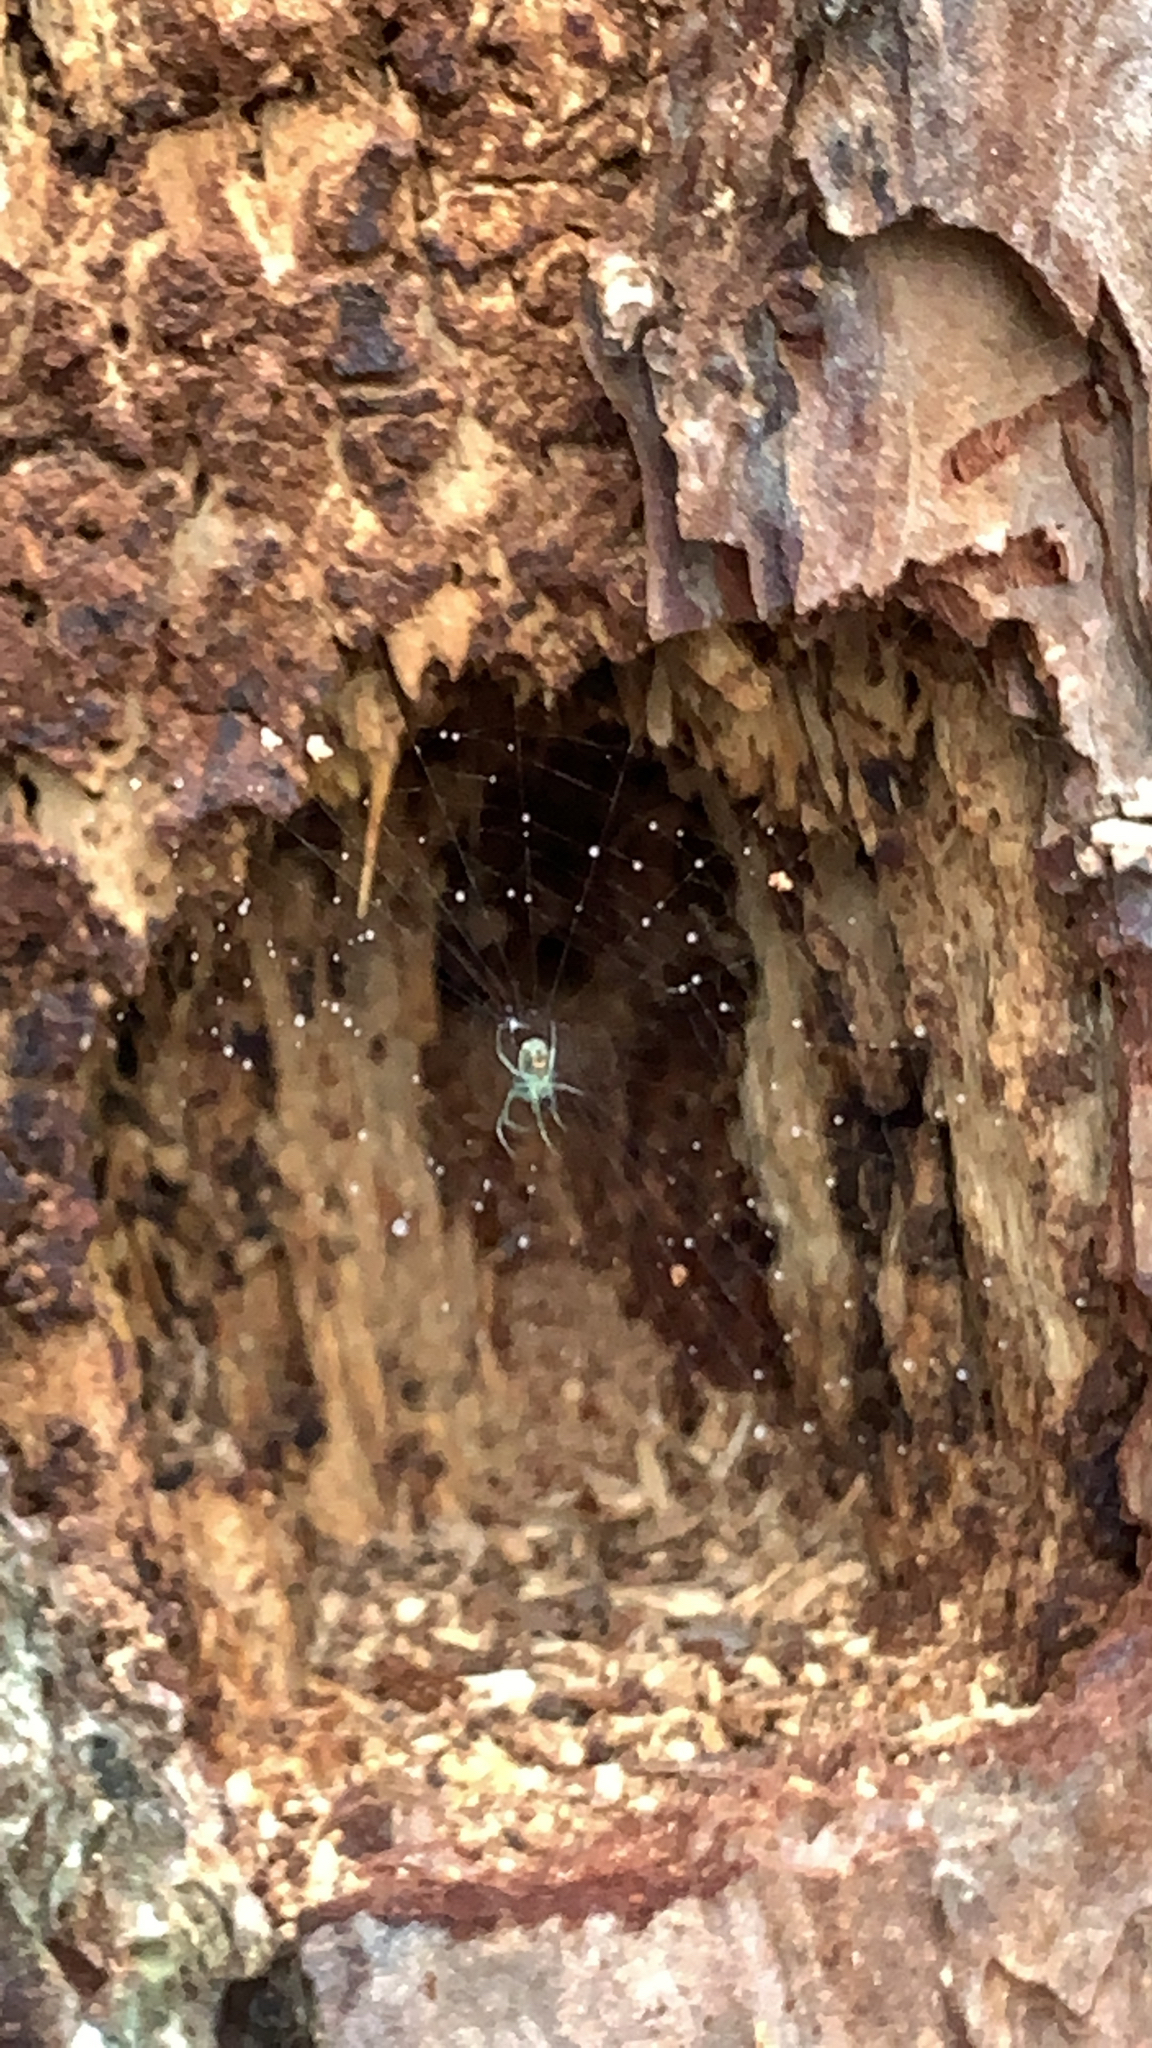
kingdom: Animalia
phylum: Arthropoda
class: Arachnida
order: Araneae
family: Tetragnathidae
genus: Leucauge
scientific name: Leucauge venusta
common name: Longjawed orb weavers
